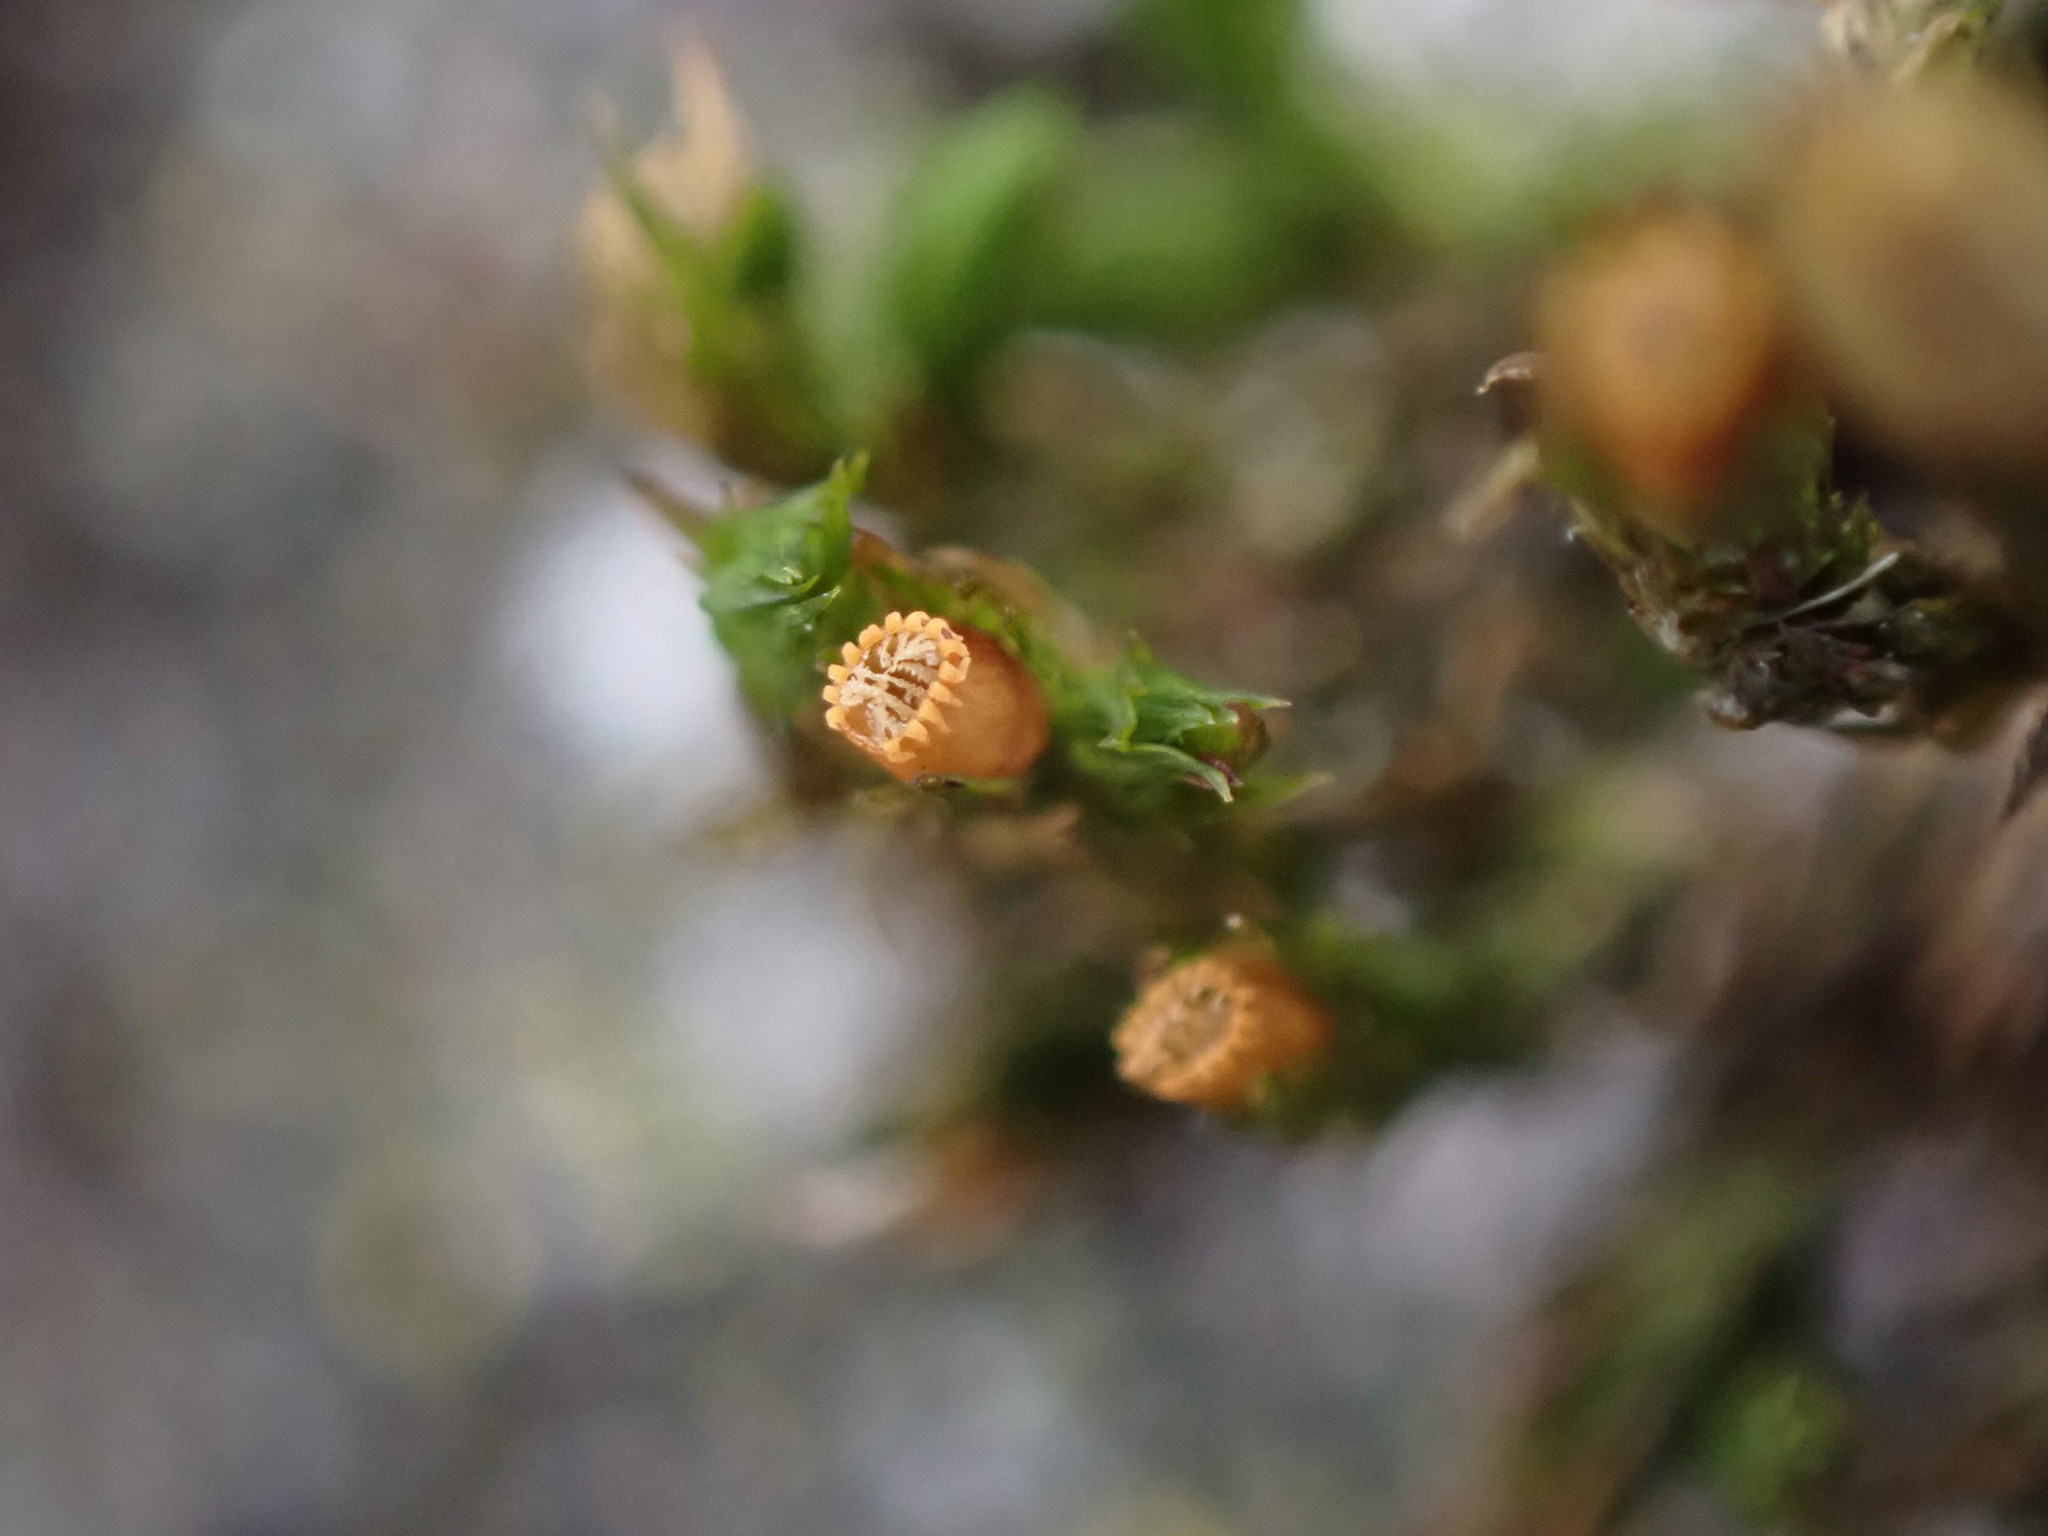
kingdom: Plantae
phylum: Bryophyta
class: Bryopsida
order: Orthotrichales
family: Orthotrichaceae
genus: Lewinskya
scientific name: Lewinskya striata
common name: Shaw's bristle-moss
